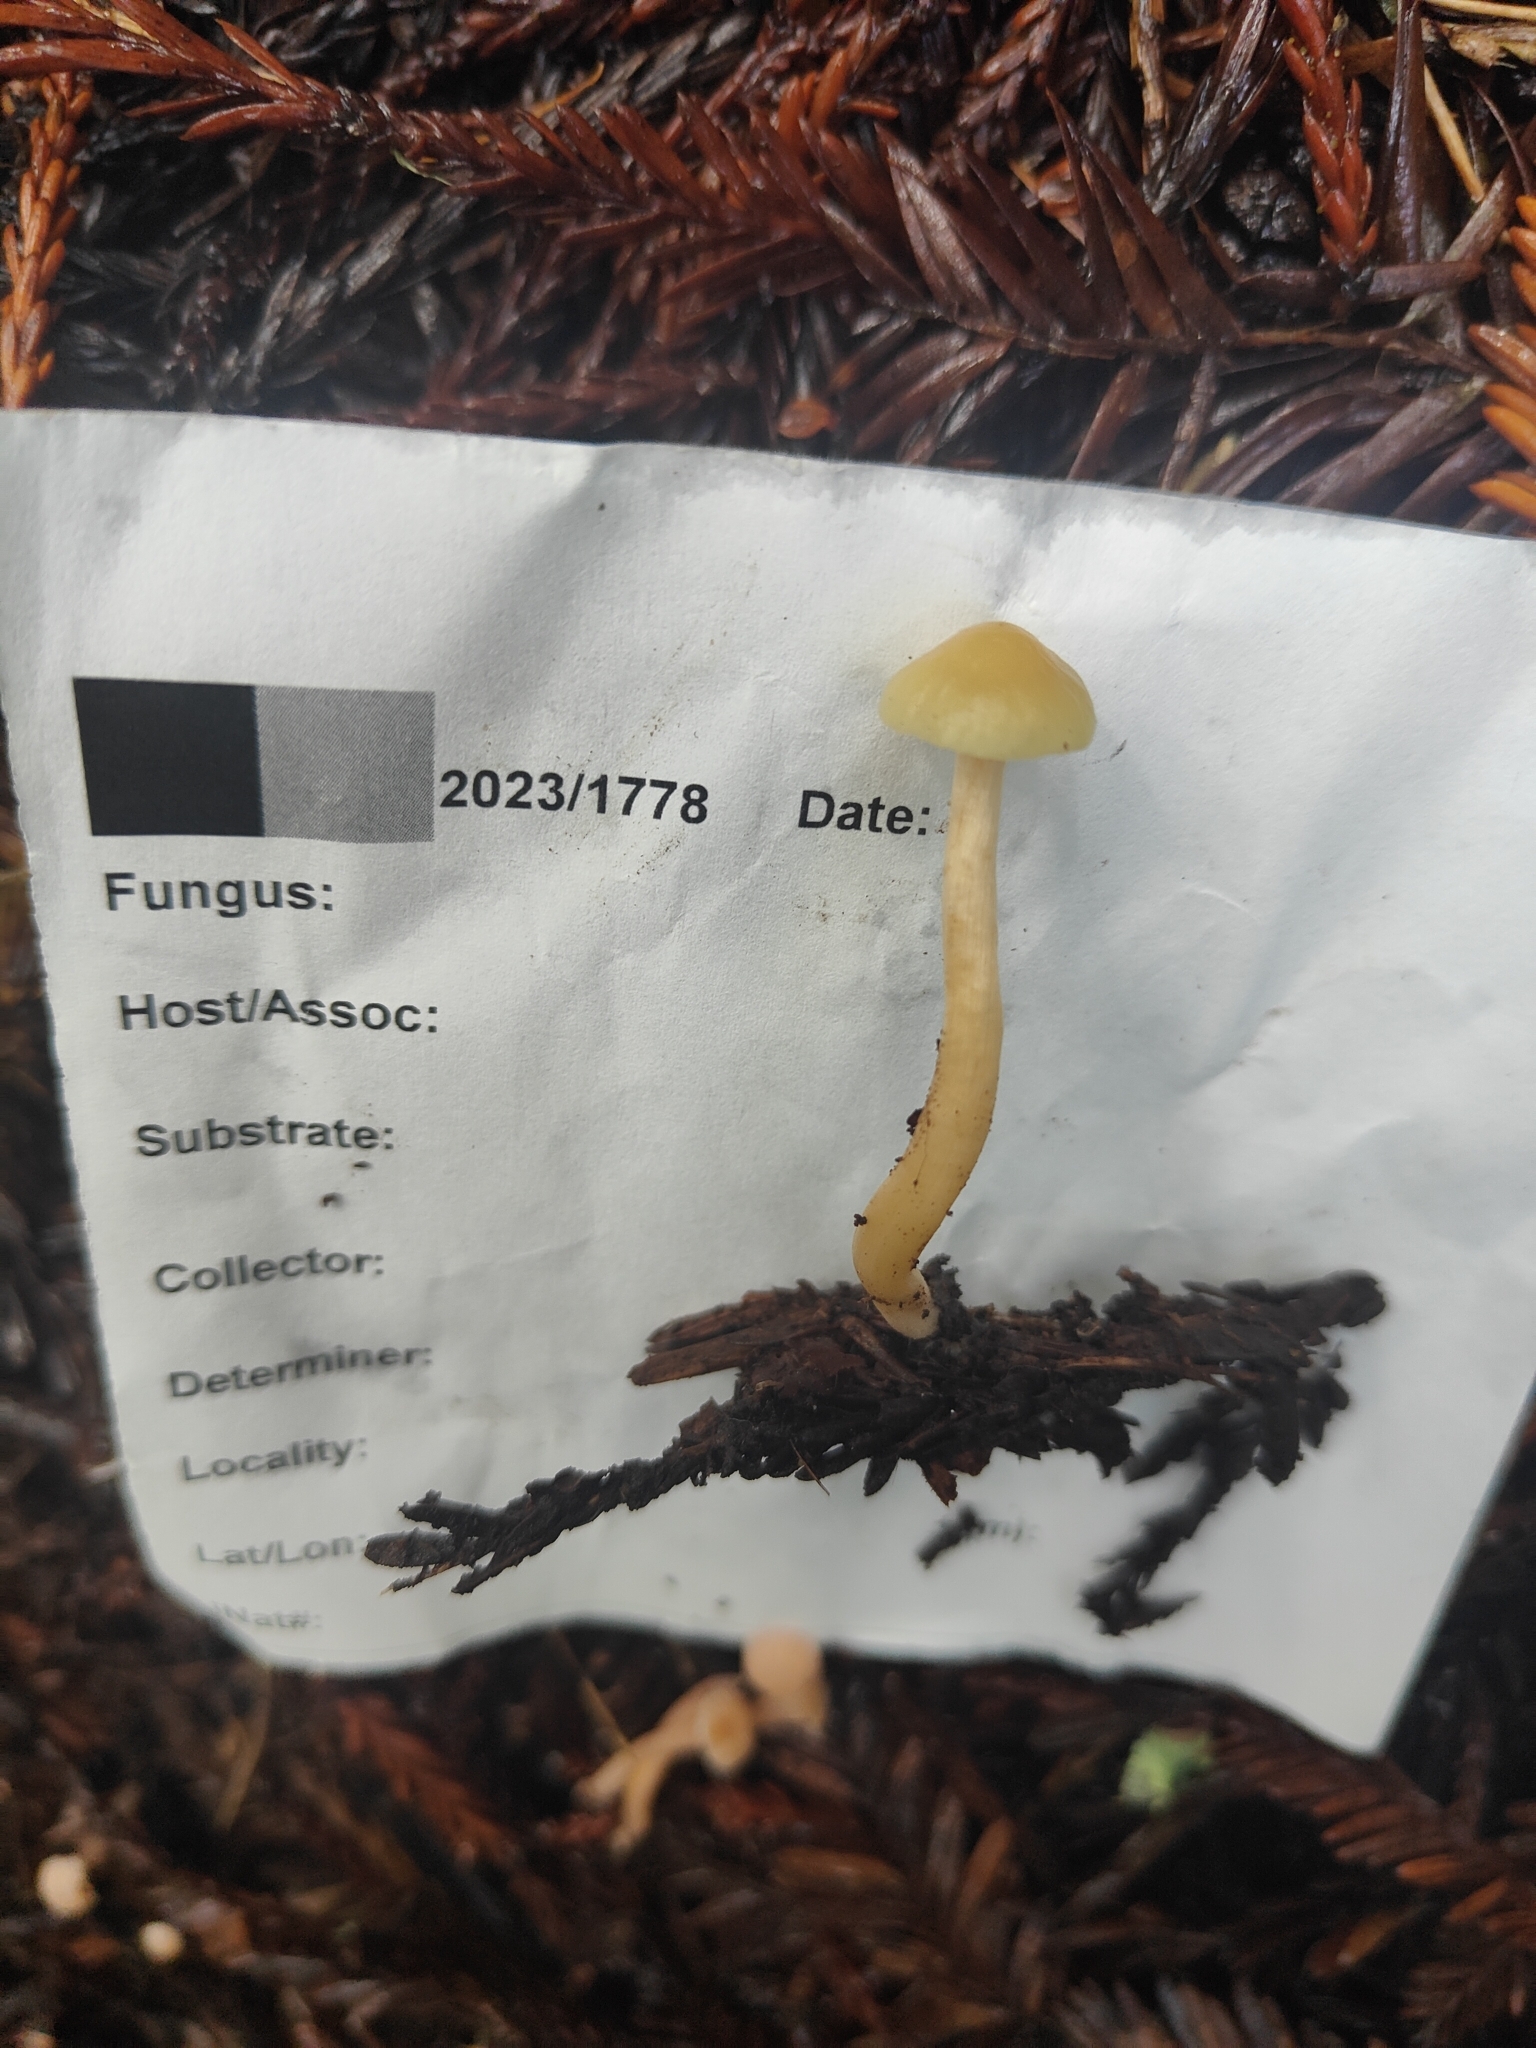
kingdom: Fungi
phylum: Basidiomycota
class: Agaricomycetes
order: Agaricales
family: Hygrophoraceae
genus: Cuphophyllus
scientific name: Cuphophyllus
